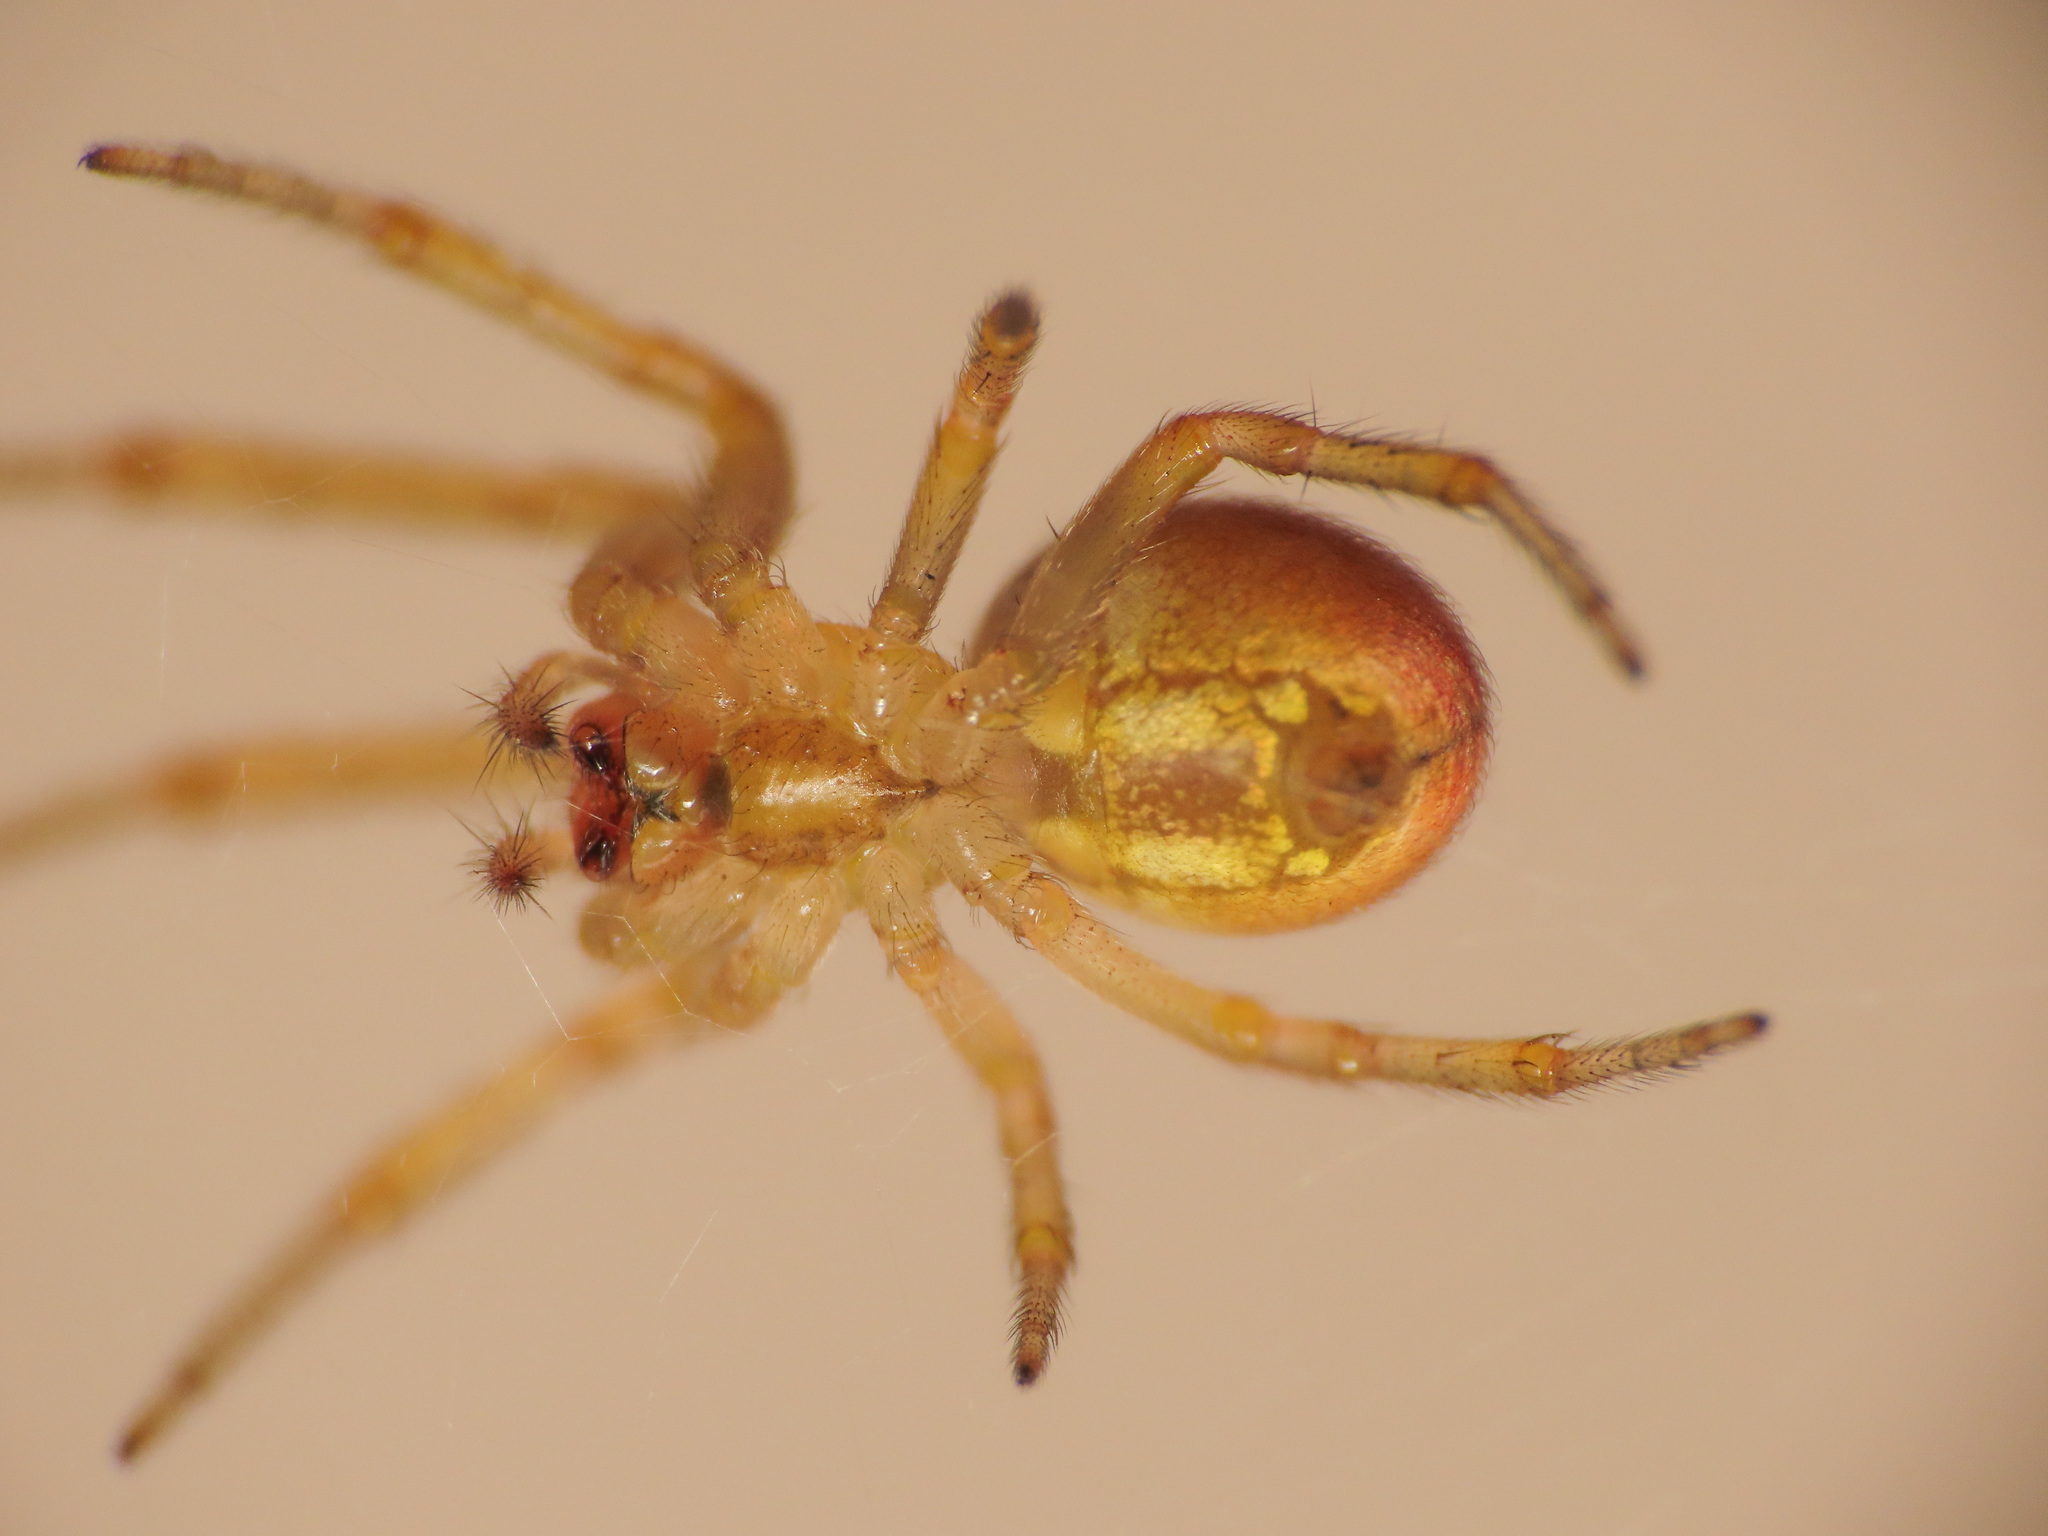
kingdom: Animalia
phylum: Arthropoda
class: Arachnida
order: Araneae
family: Araneidae
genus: Zygiella
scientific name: Zygiella atrica
